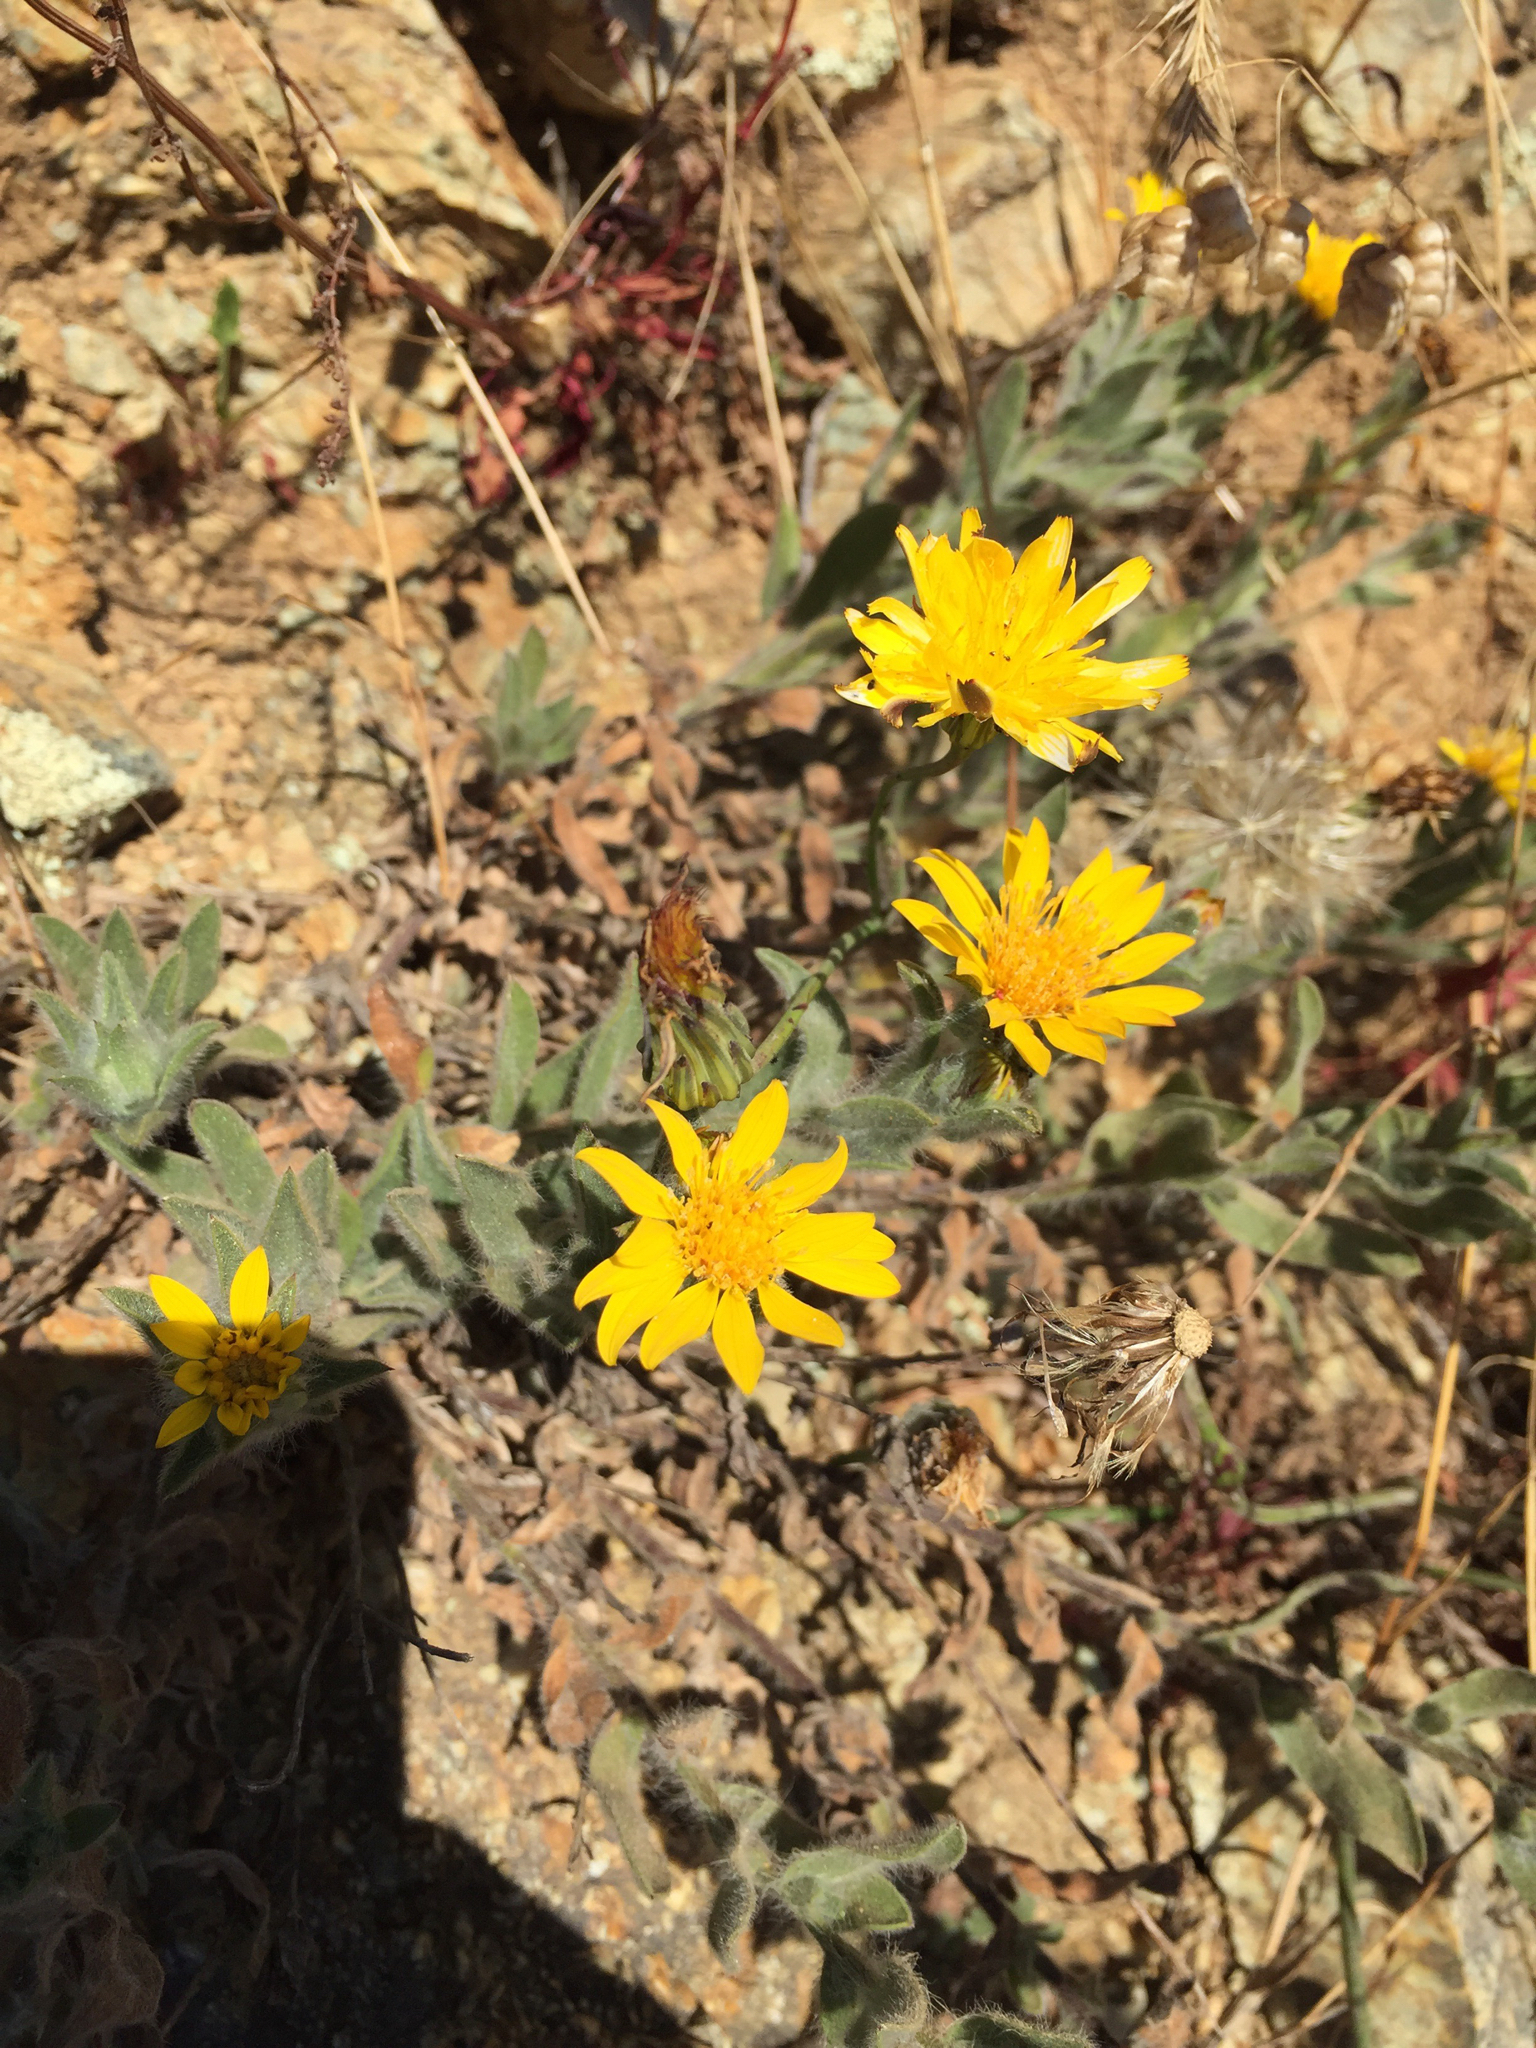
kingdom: Plantae
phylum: Tracheophyta
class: Magnoliopsida
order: Asterales
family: Asteraceae
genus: Heterotheca
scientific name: Heterotheca bolanderi
